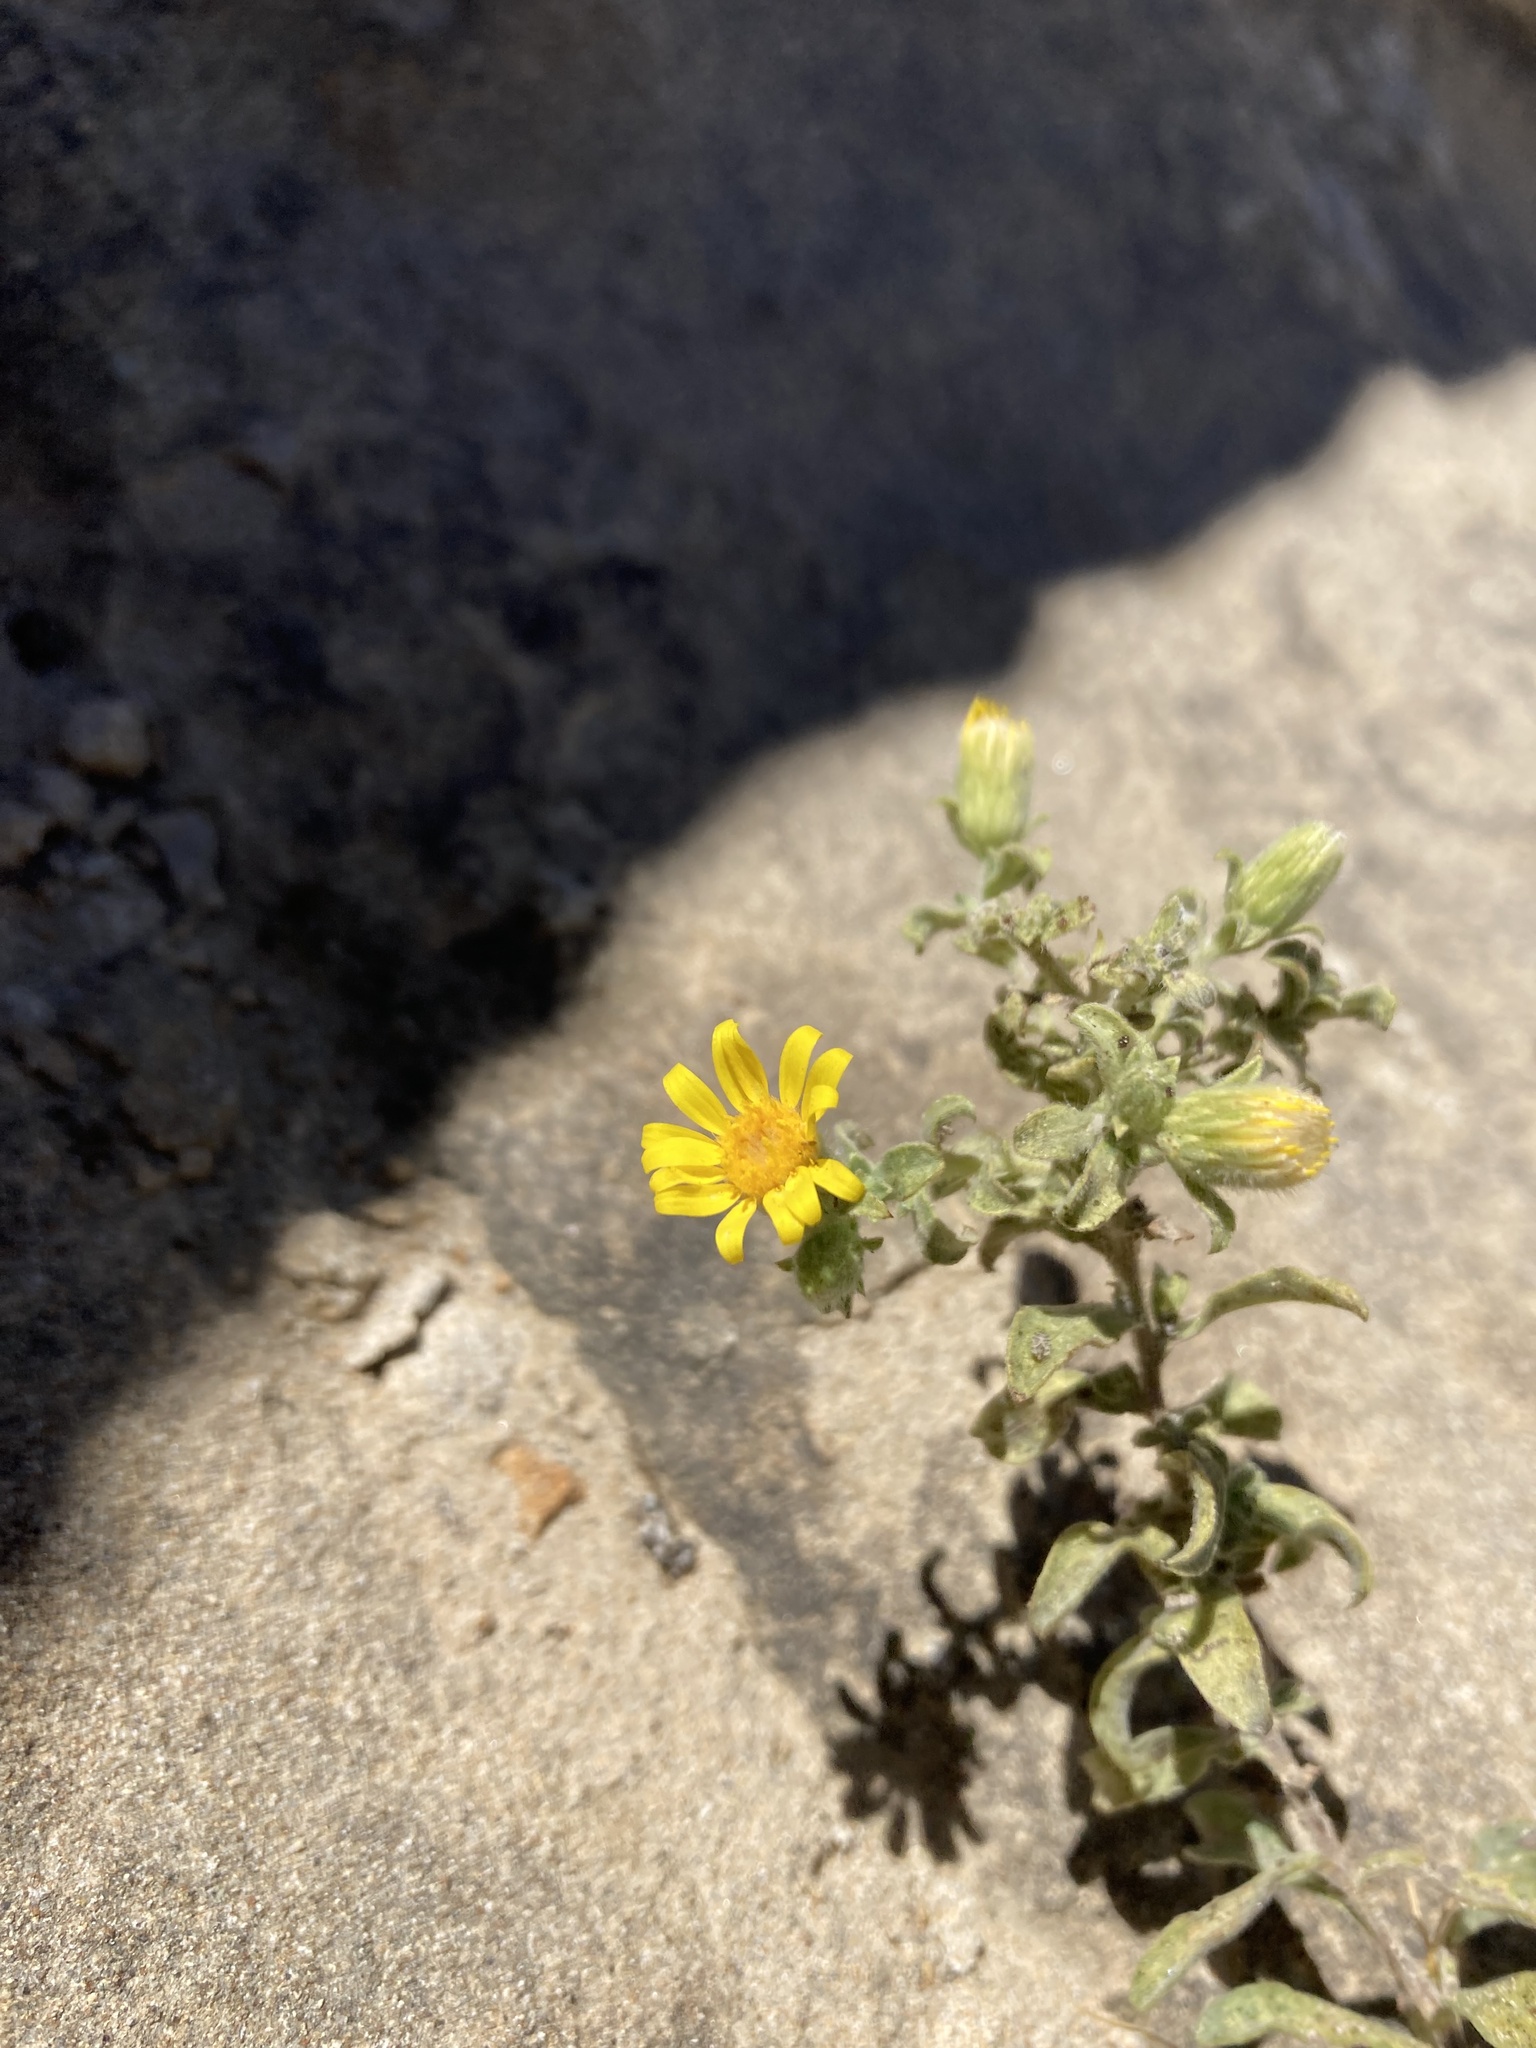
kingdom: Plantae
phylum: Tracheophyta
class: Magnoliopsida
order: Asterales
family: Asteraceae
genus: Heterotheca
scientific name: Heterotheca villosa
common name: Hairy false goldenaster
